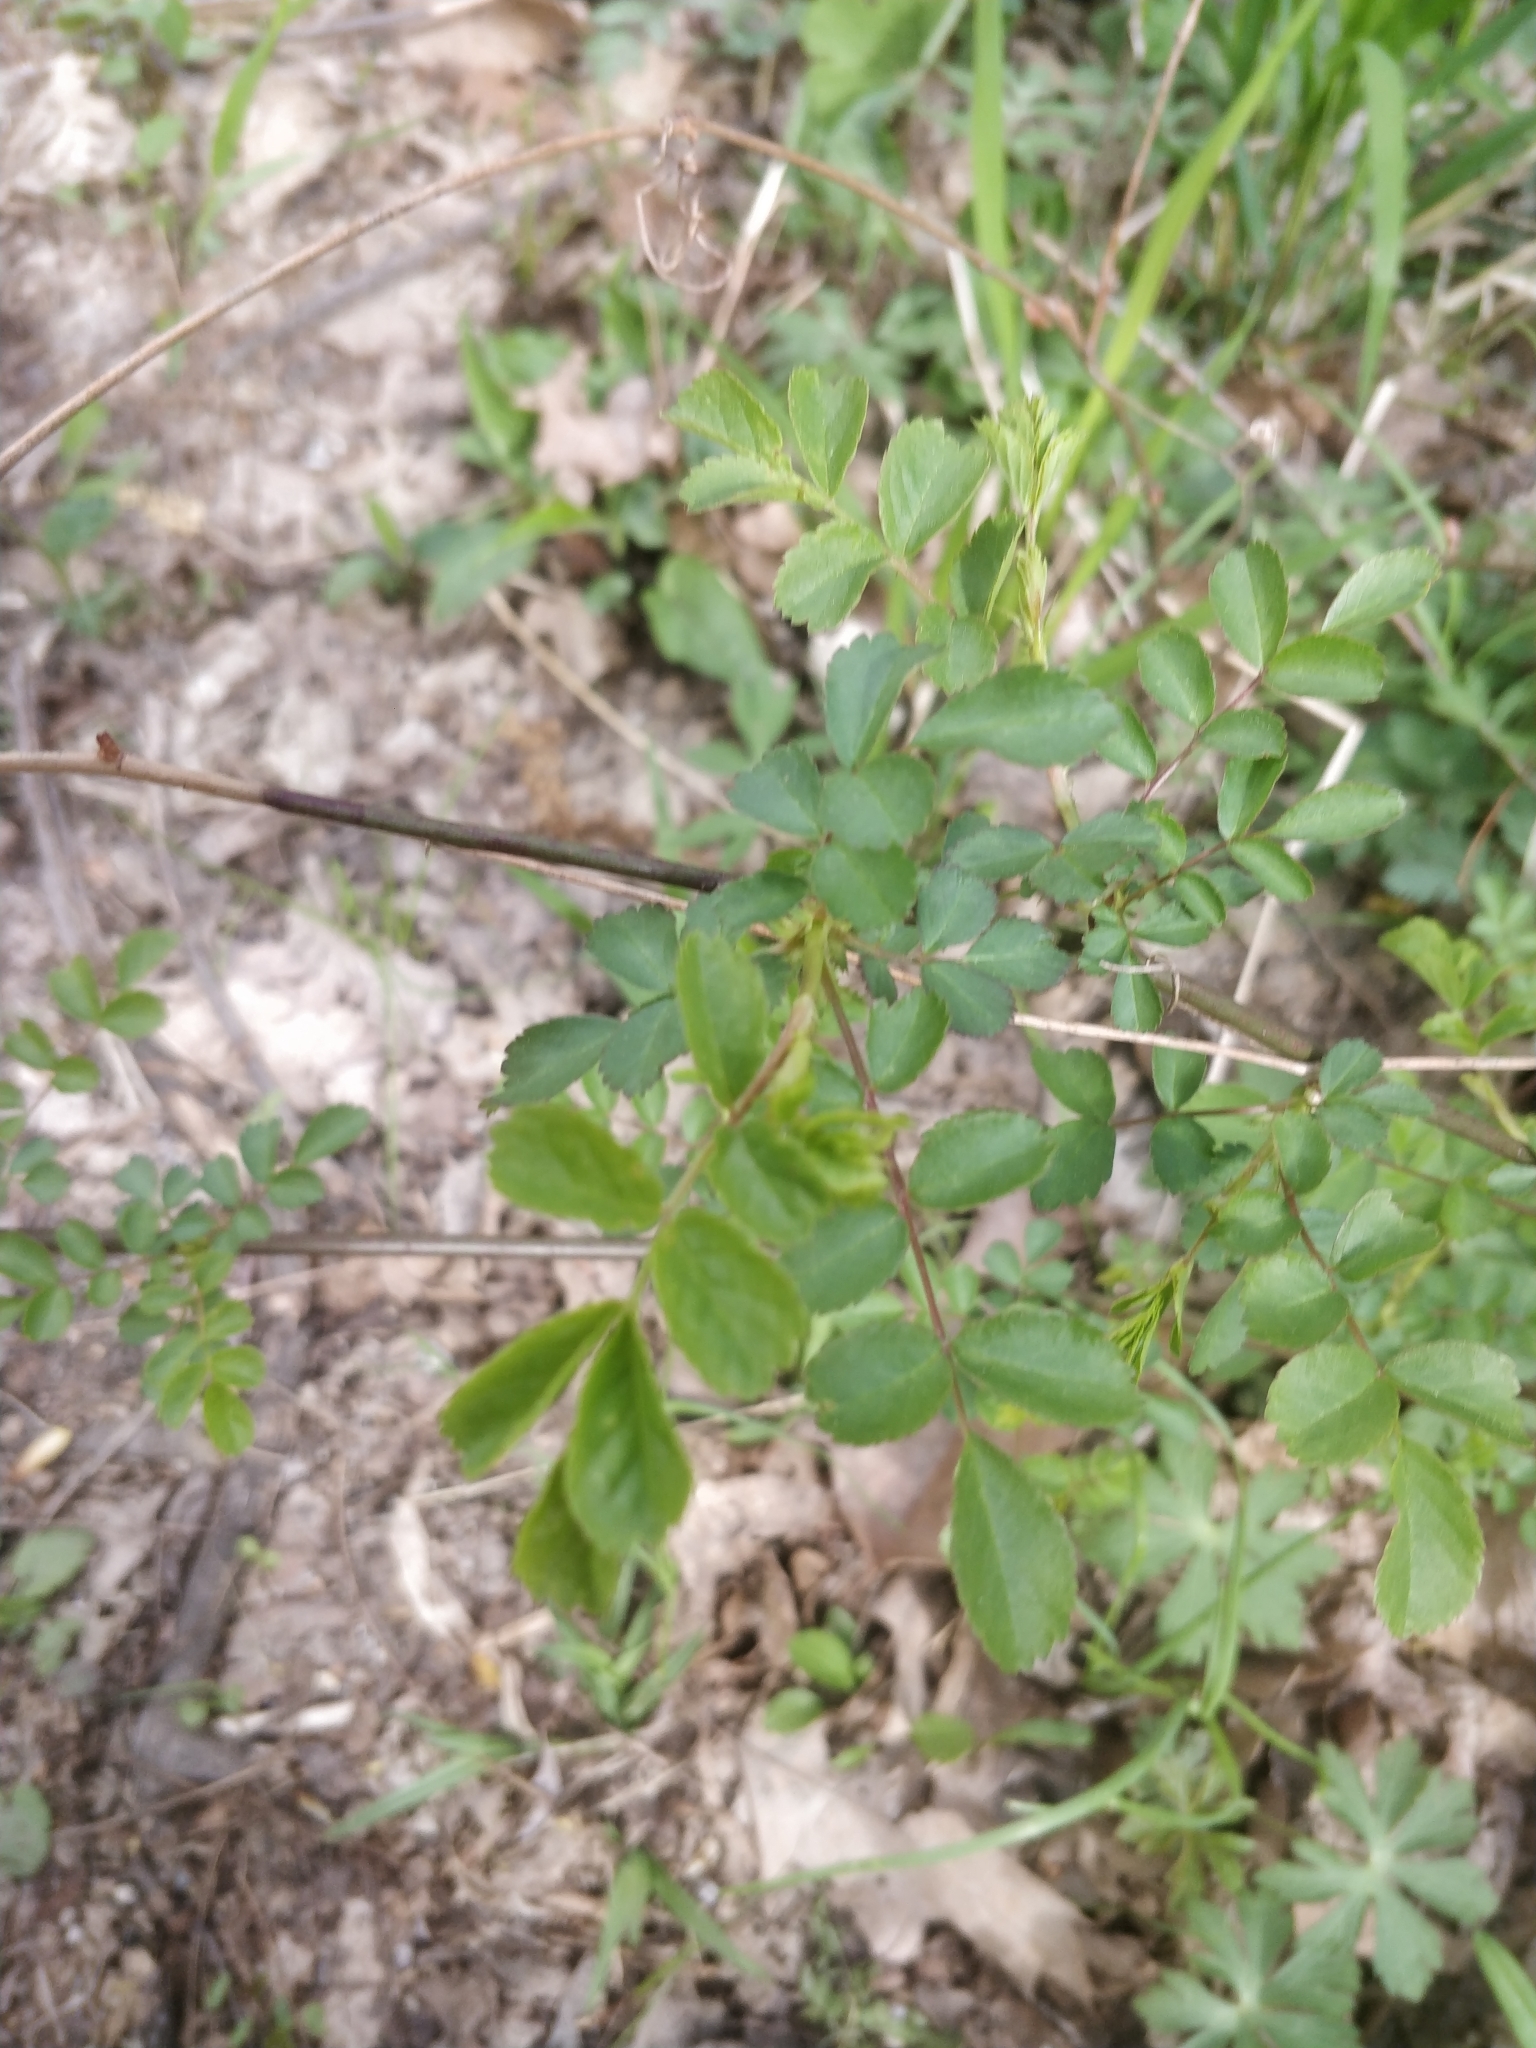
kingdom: Plantae
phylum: Tracheophyta
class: Magnoliopsida
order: Rosales
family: Rosaceae
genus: Rosa
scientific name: Rosa multiflora
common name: Multiflora rose
